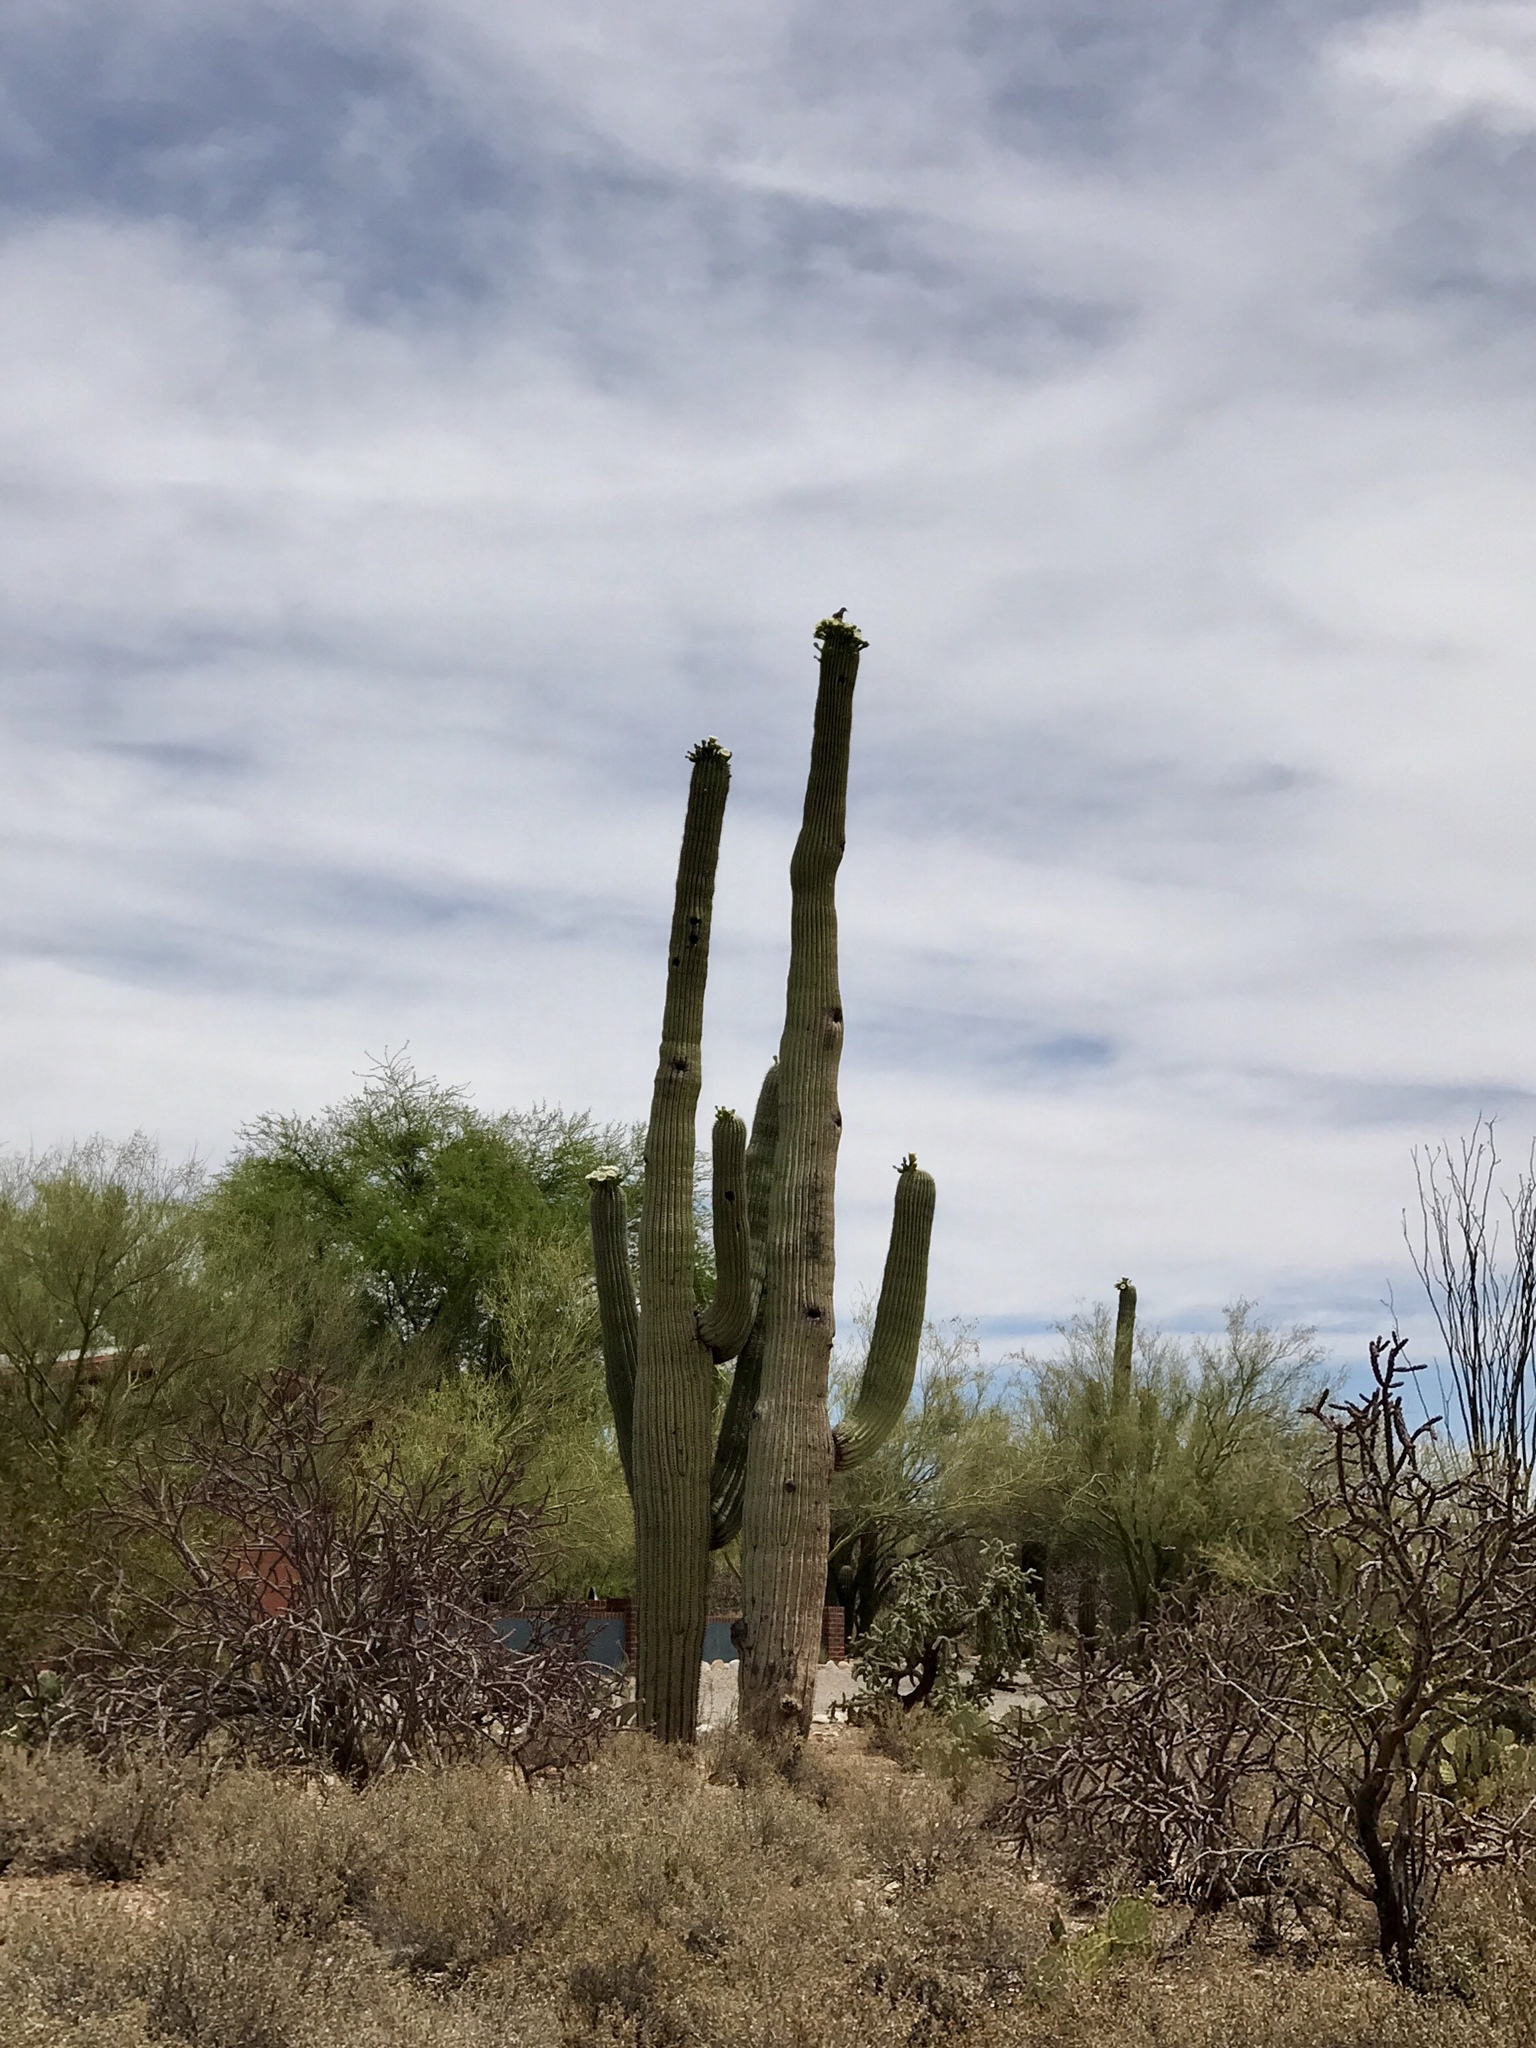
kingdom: Plantae
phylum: Tracheophyta
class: Magnoliopsida
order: Caryophyllales
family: Cactaceae
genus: Carnegiea
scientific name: Carnegiea gigantea
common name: Saguaro
